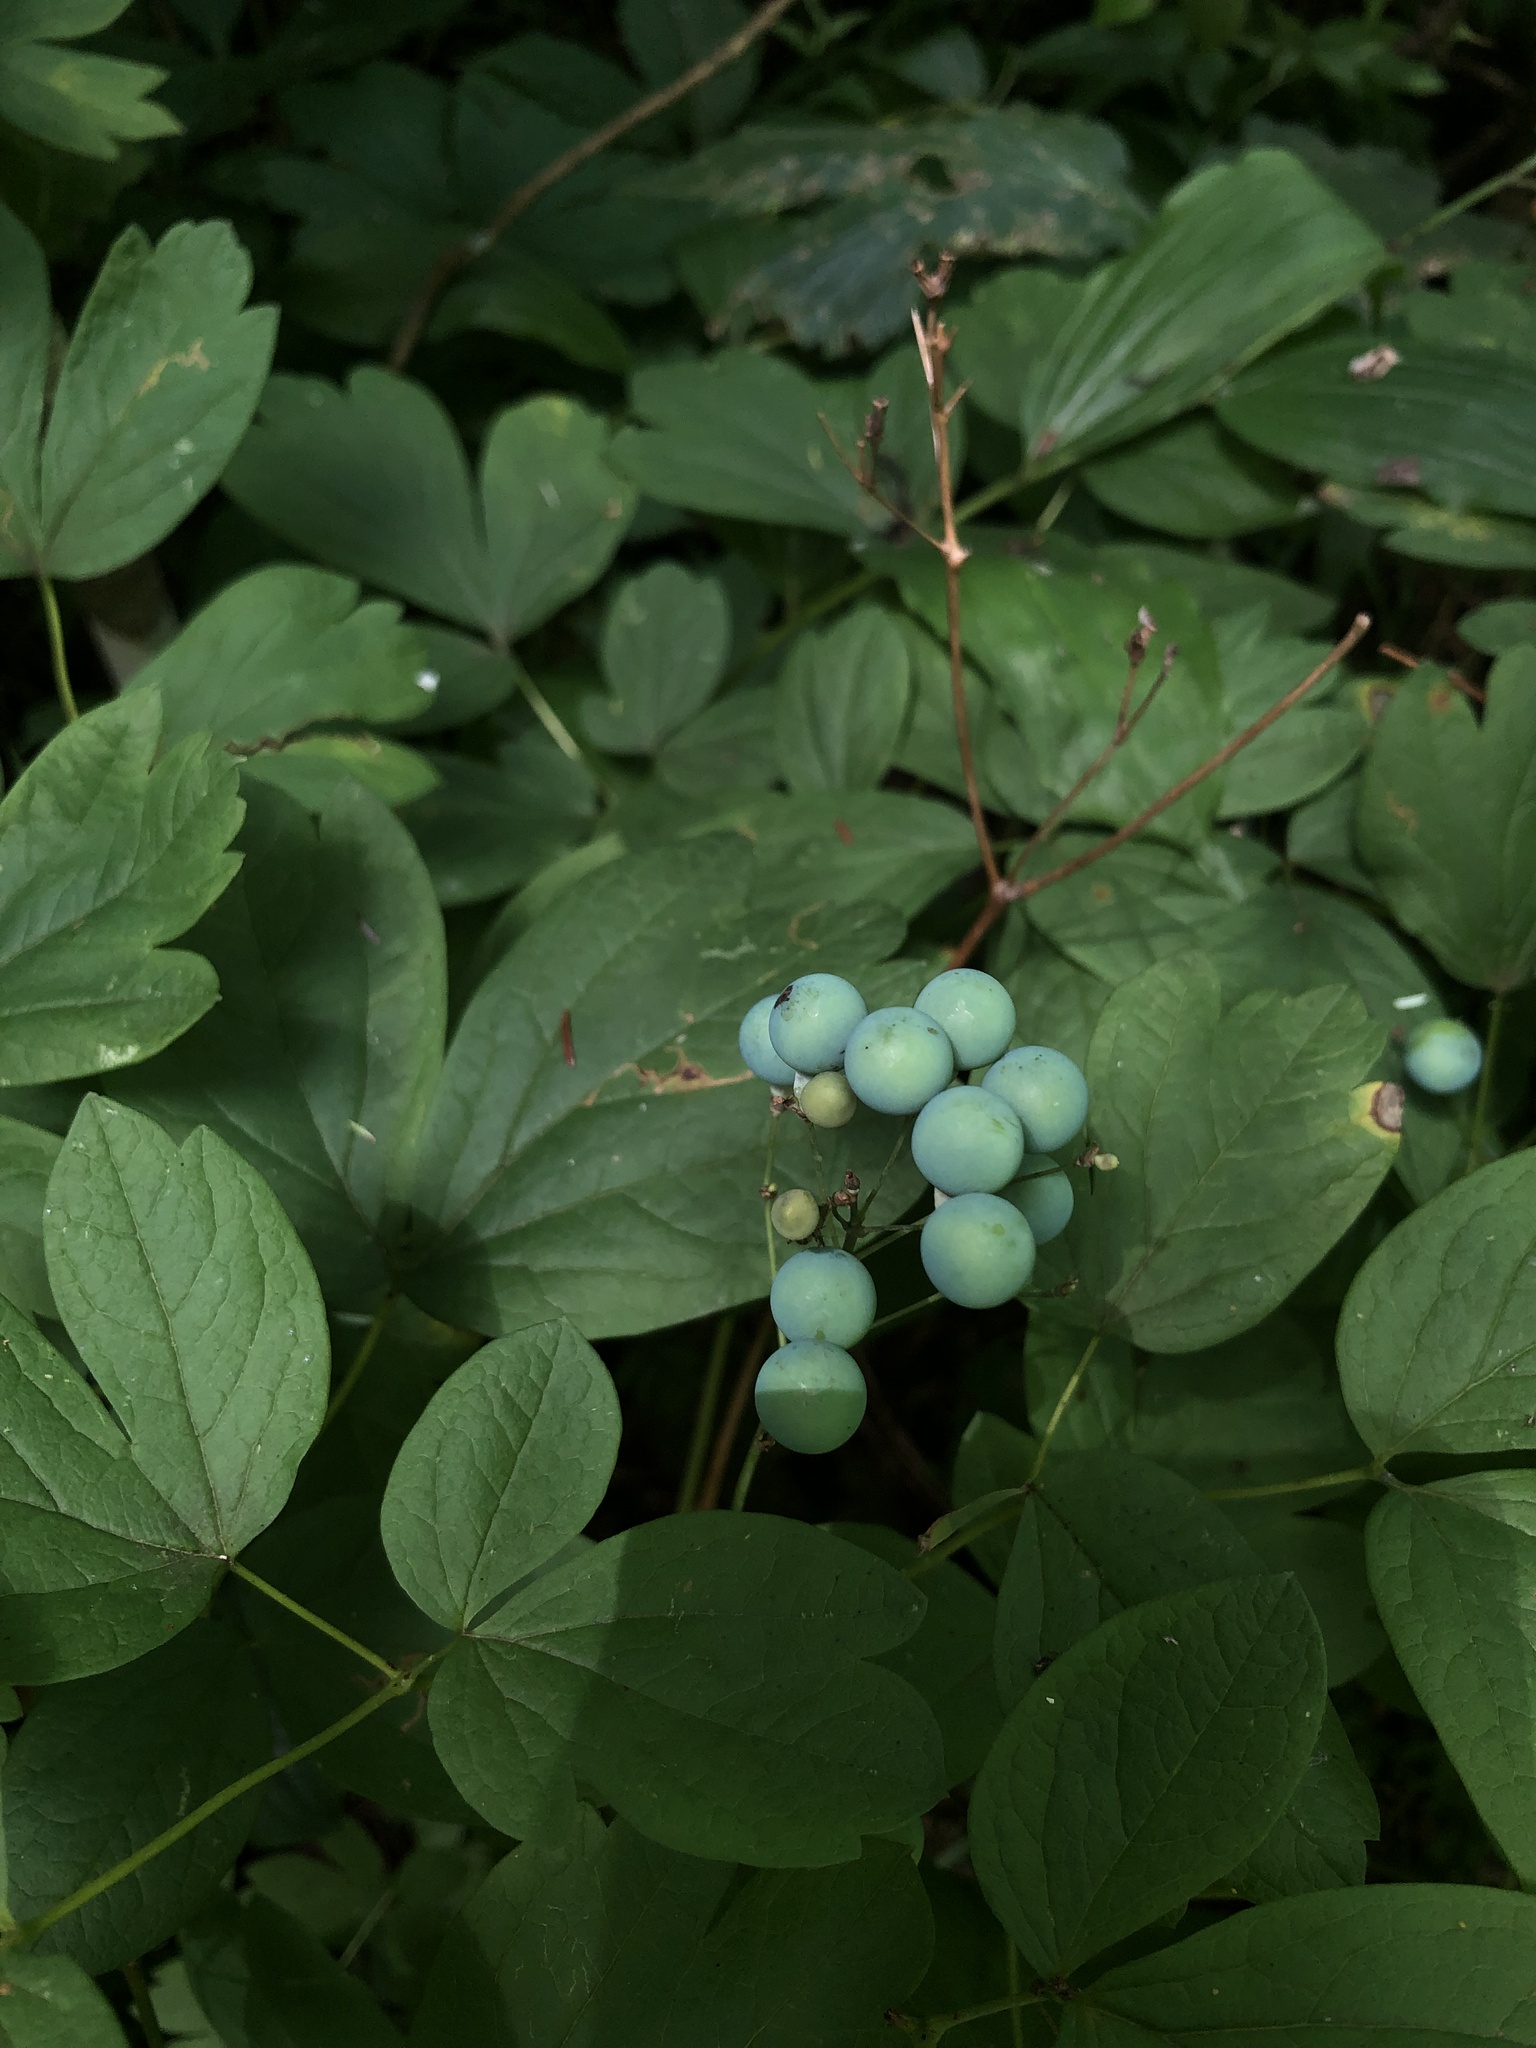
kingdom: Plantae
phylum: Tracheophyta
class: Magnoliopsida
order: Ranunculales
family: Berberidaceae
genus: Caulophyllum
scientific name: Caulophyllum thalictroides
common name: Blue cohosh
